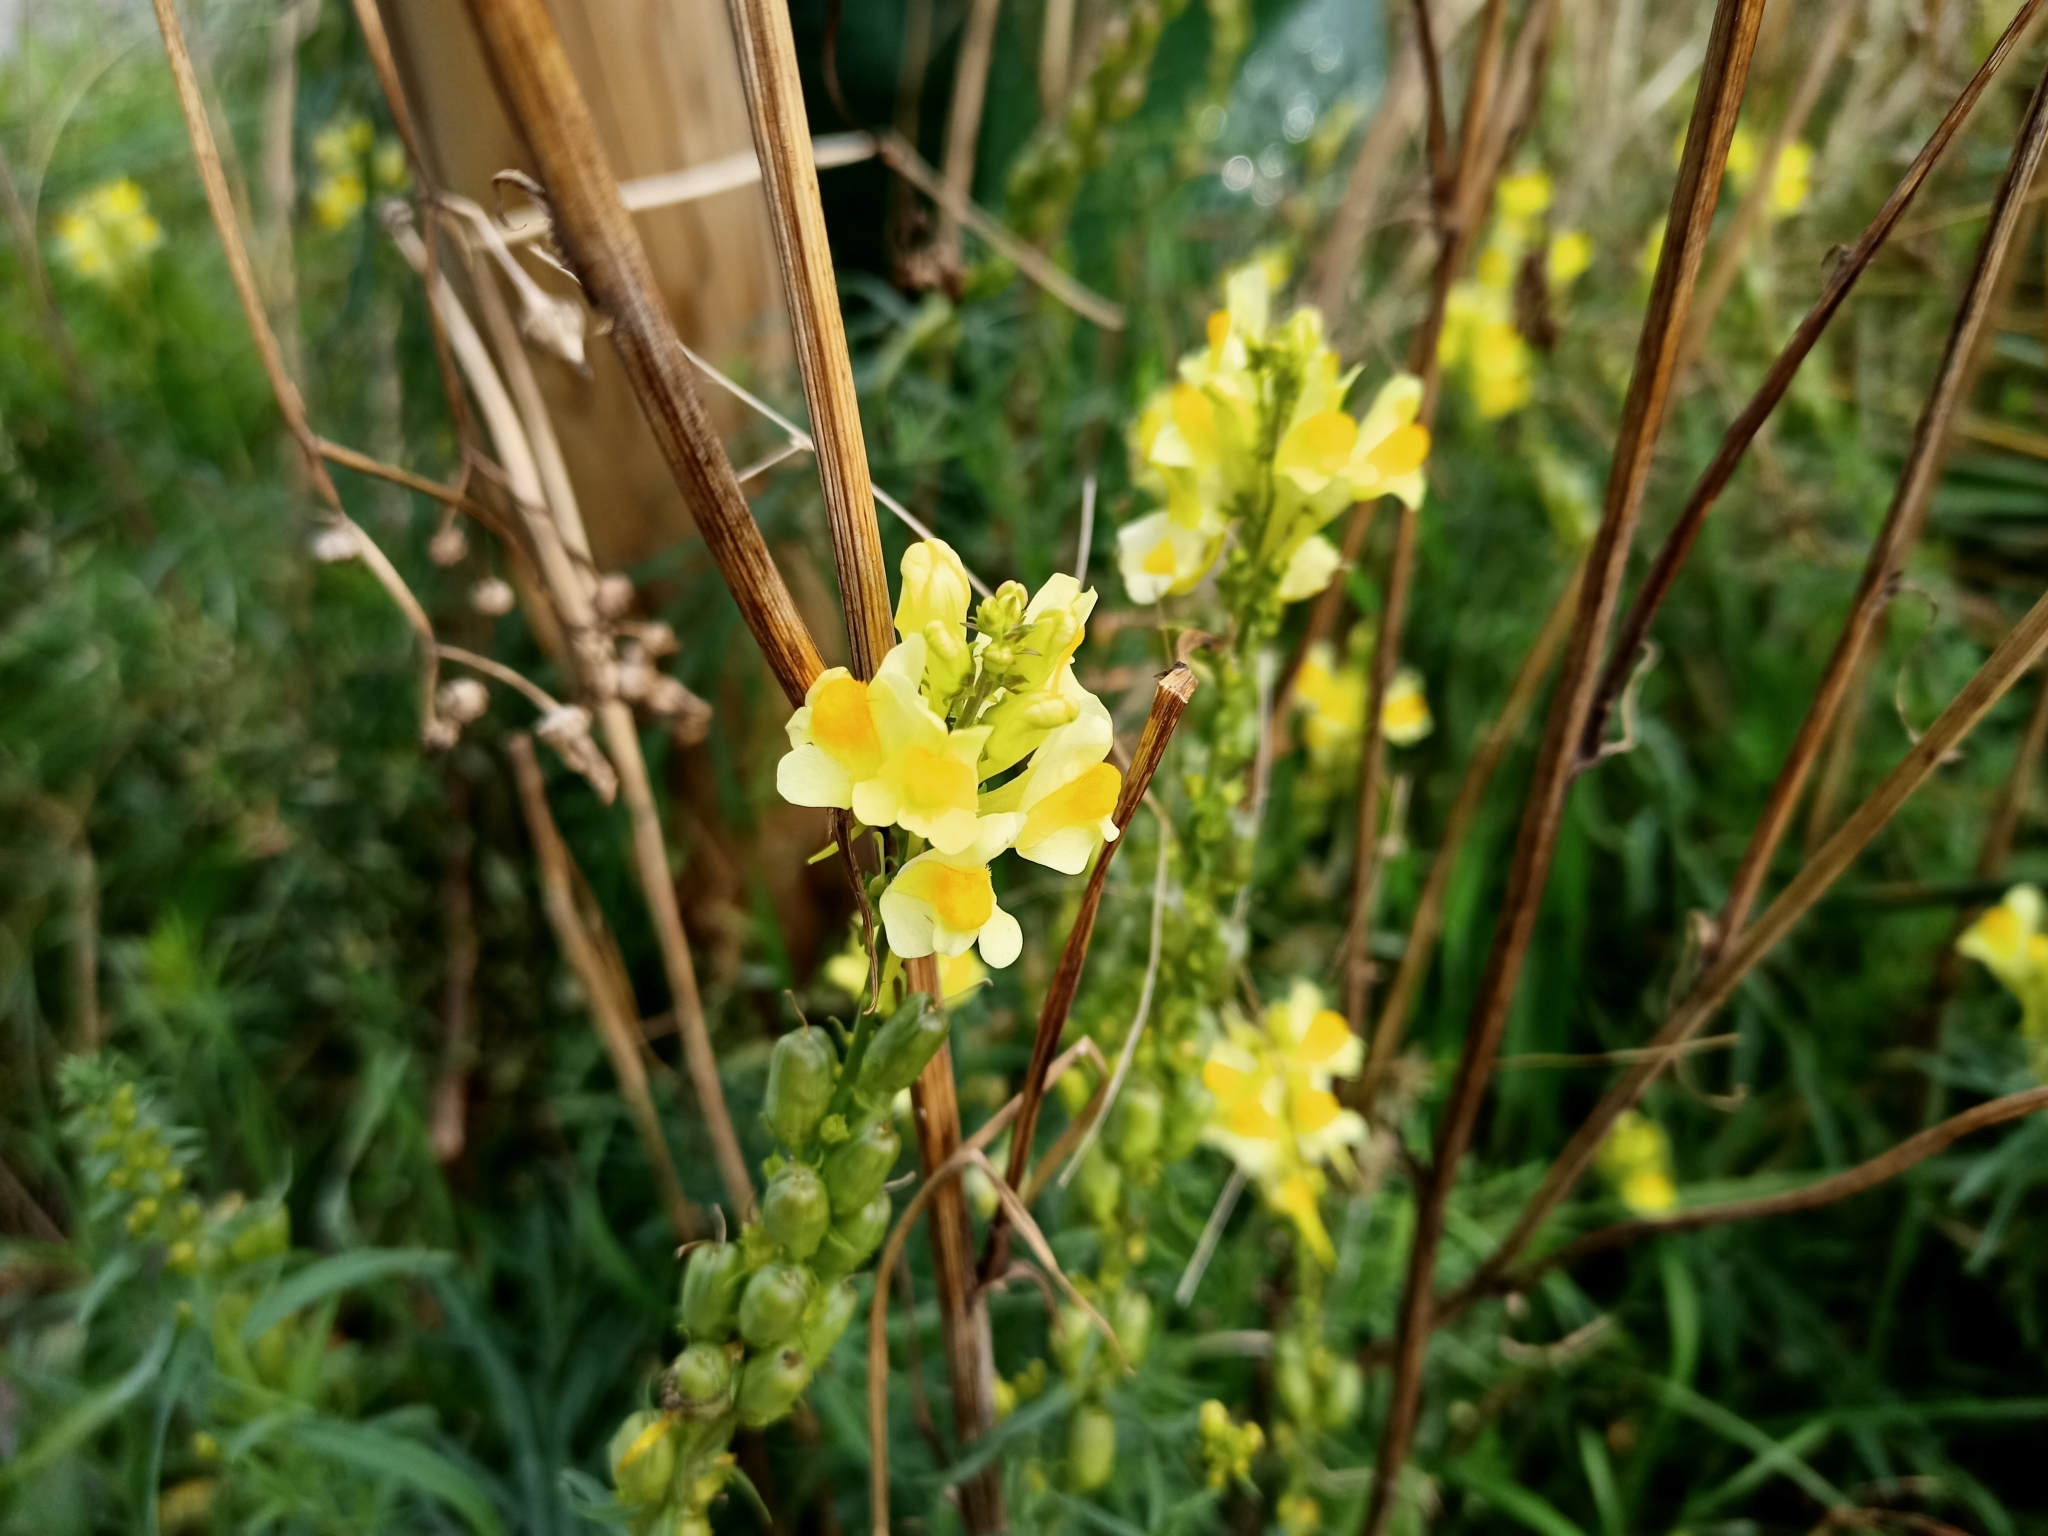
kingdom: Plantae
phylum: Tracheophyta
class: Magnoliopsida
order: Lamiales
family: Plantaginaceae
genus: Linaria
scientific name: Linaria vulgaris
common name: Butter and eggs
